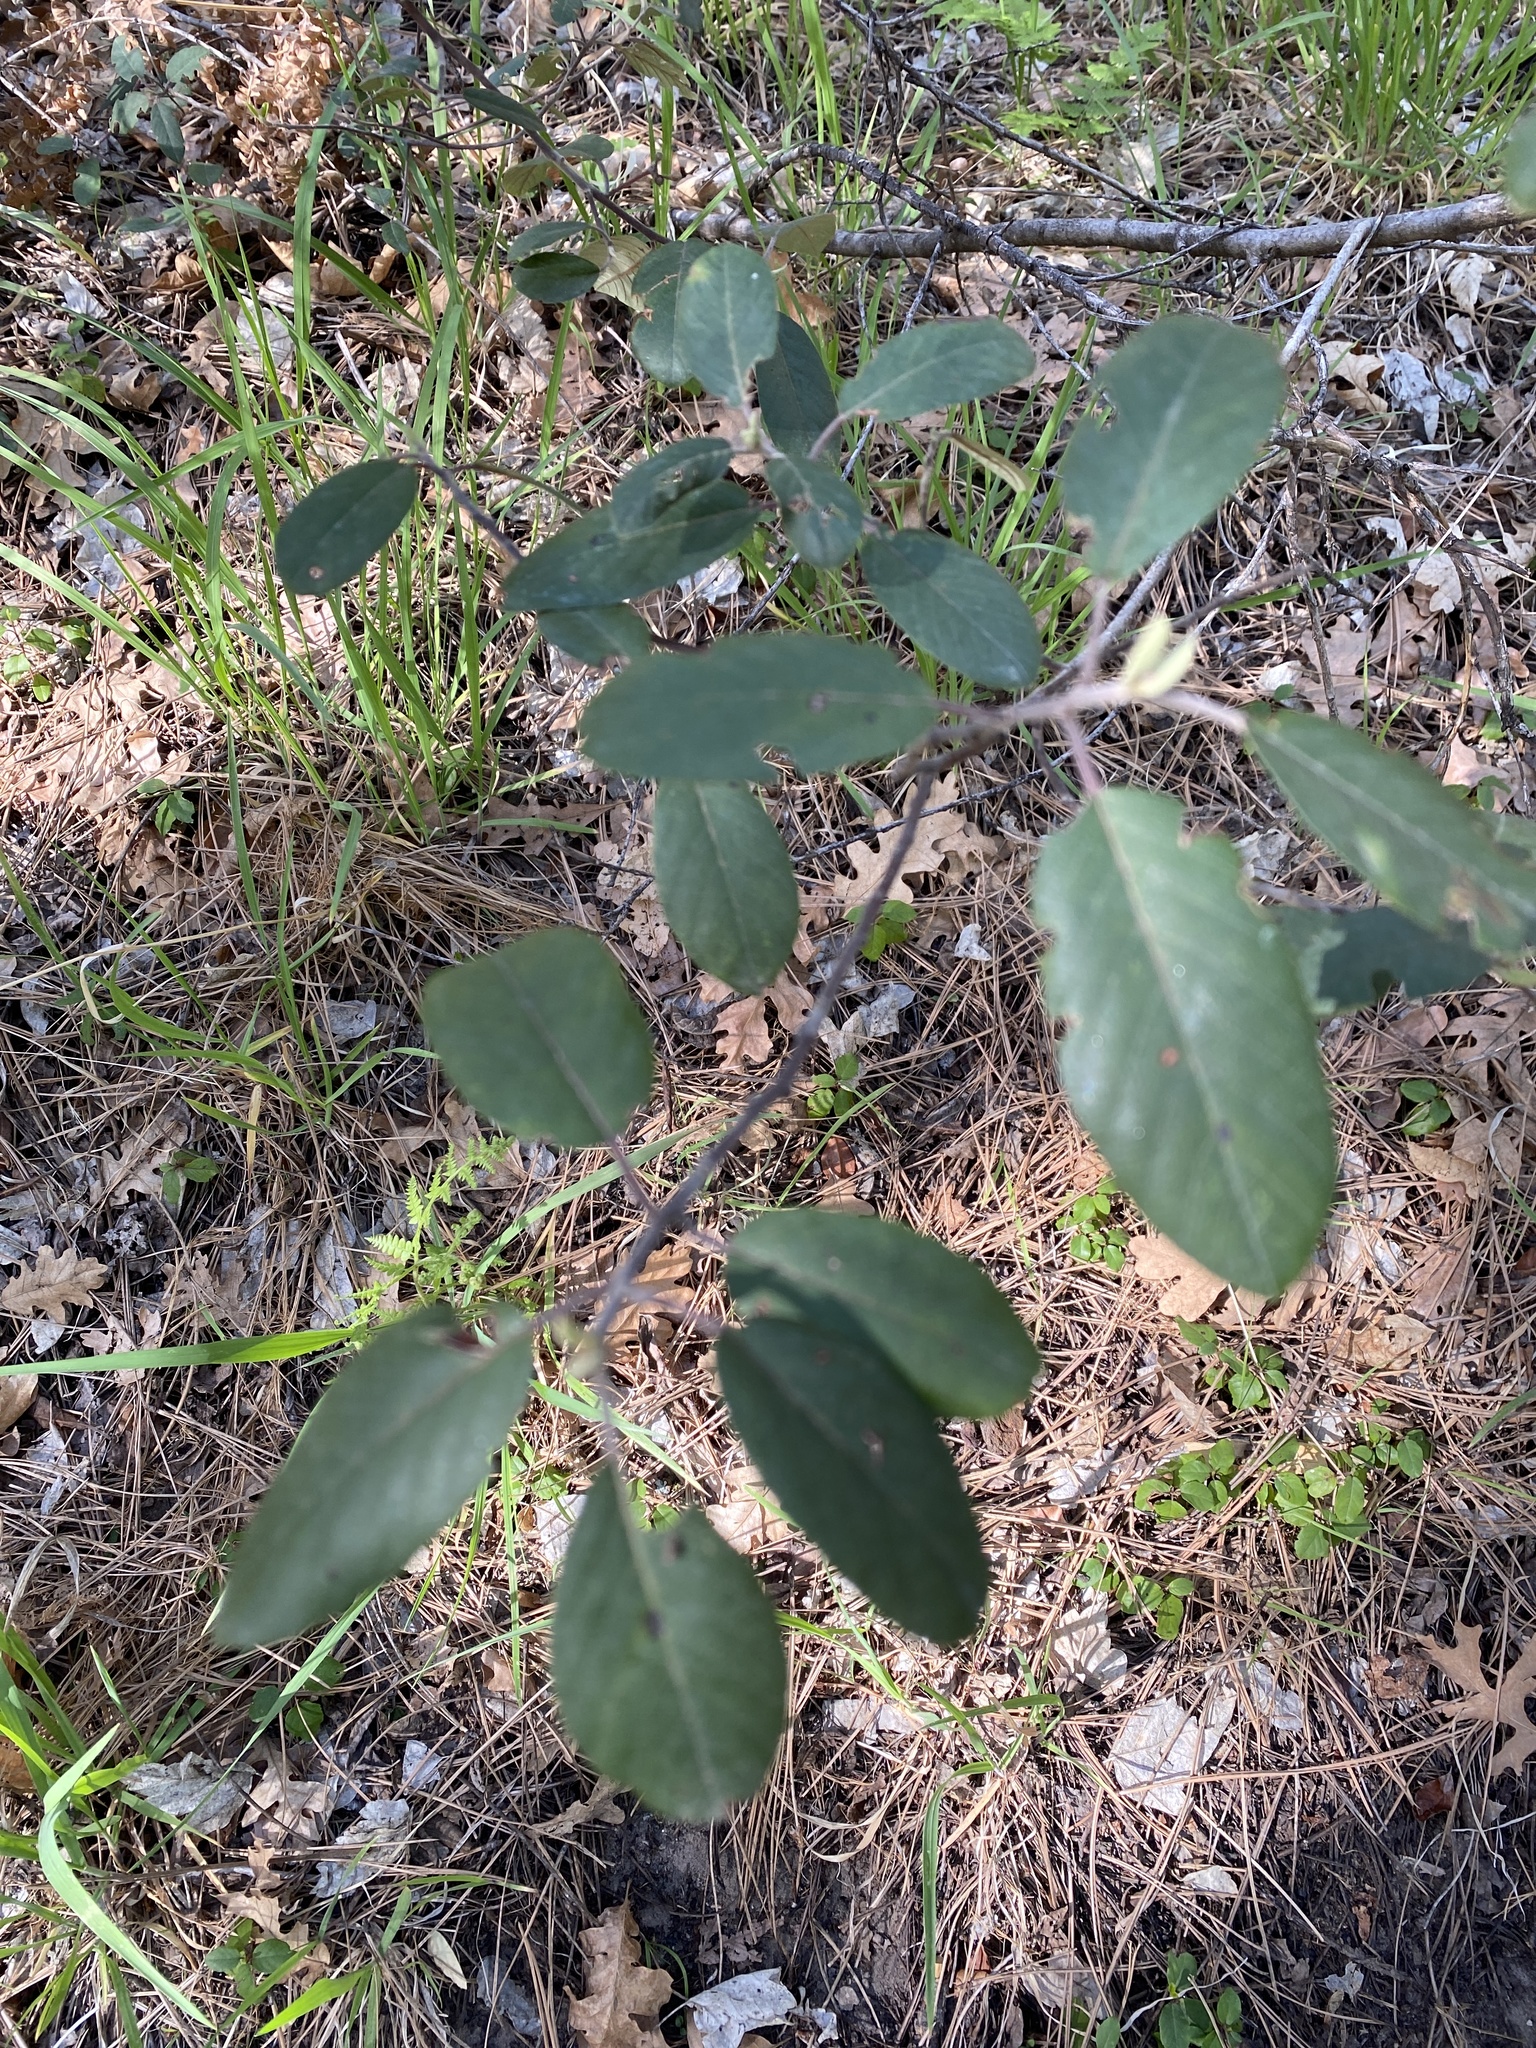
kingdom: Plantae
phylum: Tracheophyta
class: Magnoliopsida
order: Rosales
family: Rhamnaceae
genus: Frangula
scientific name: Frangula californica
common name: California buckthorn
